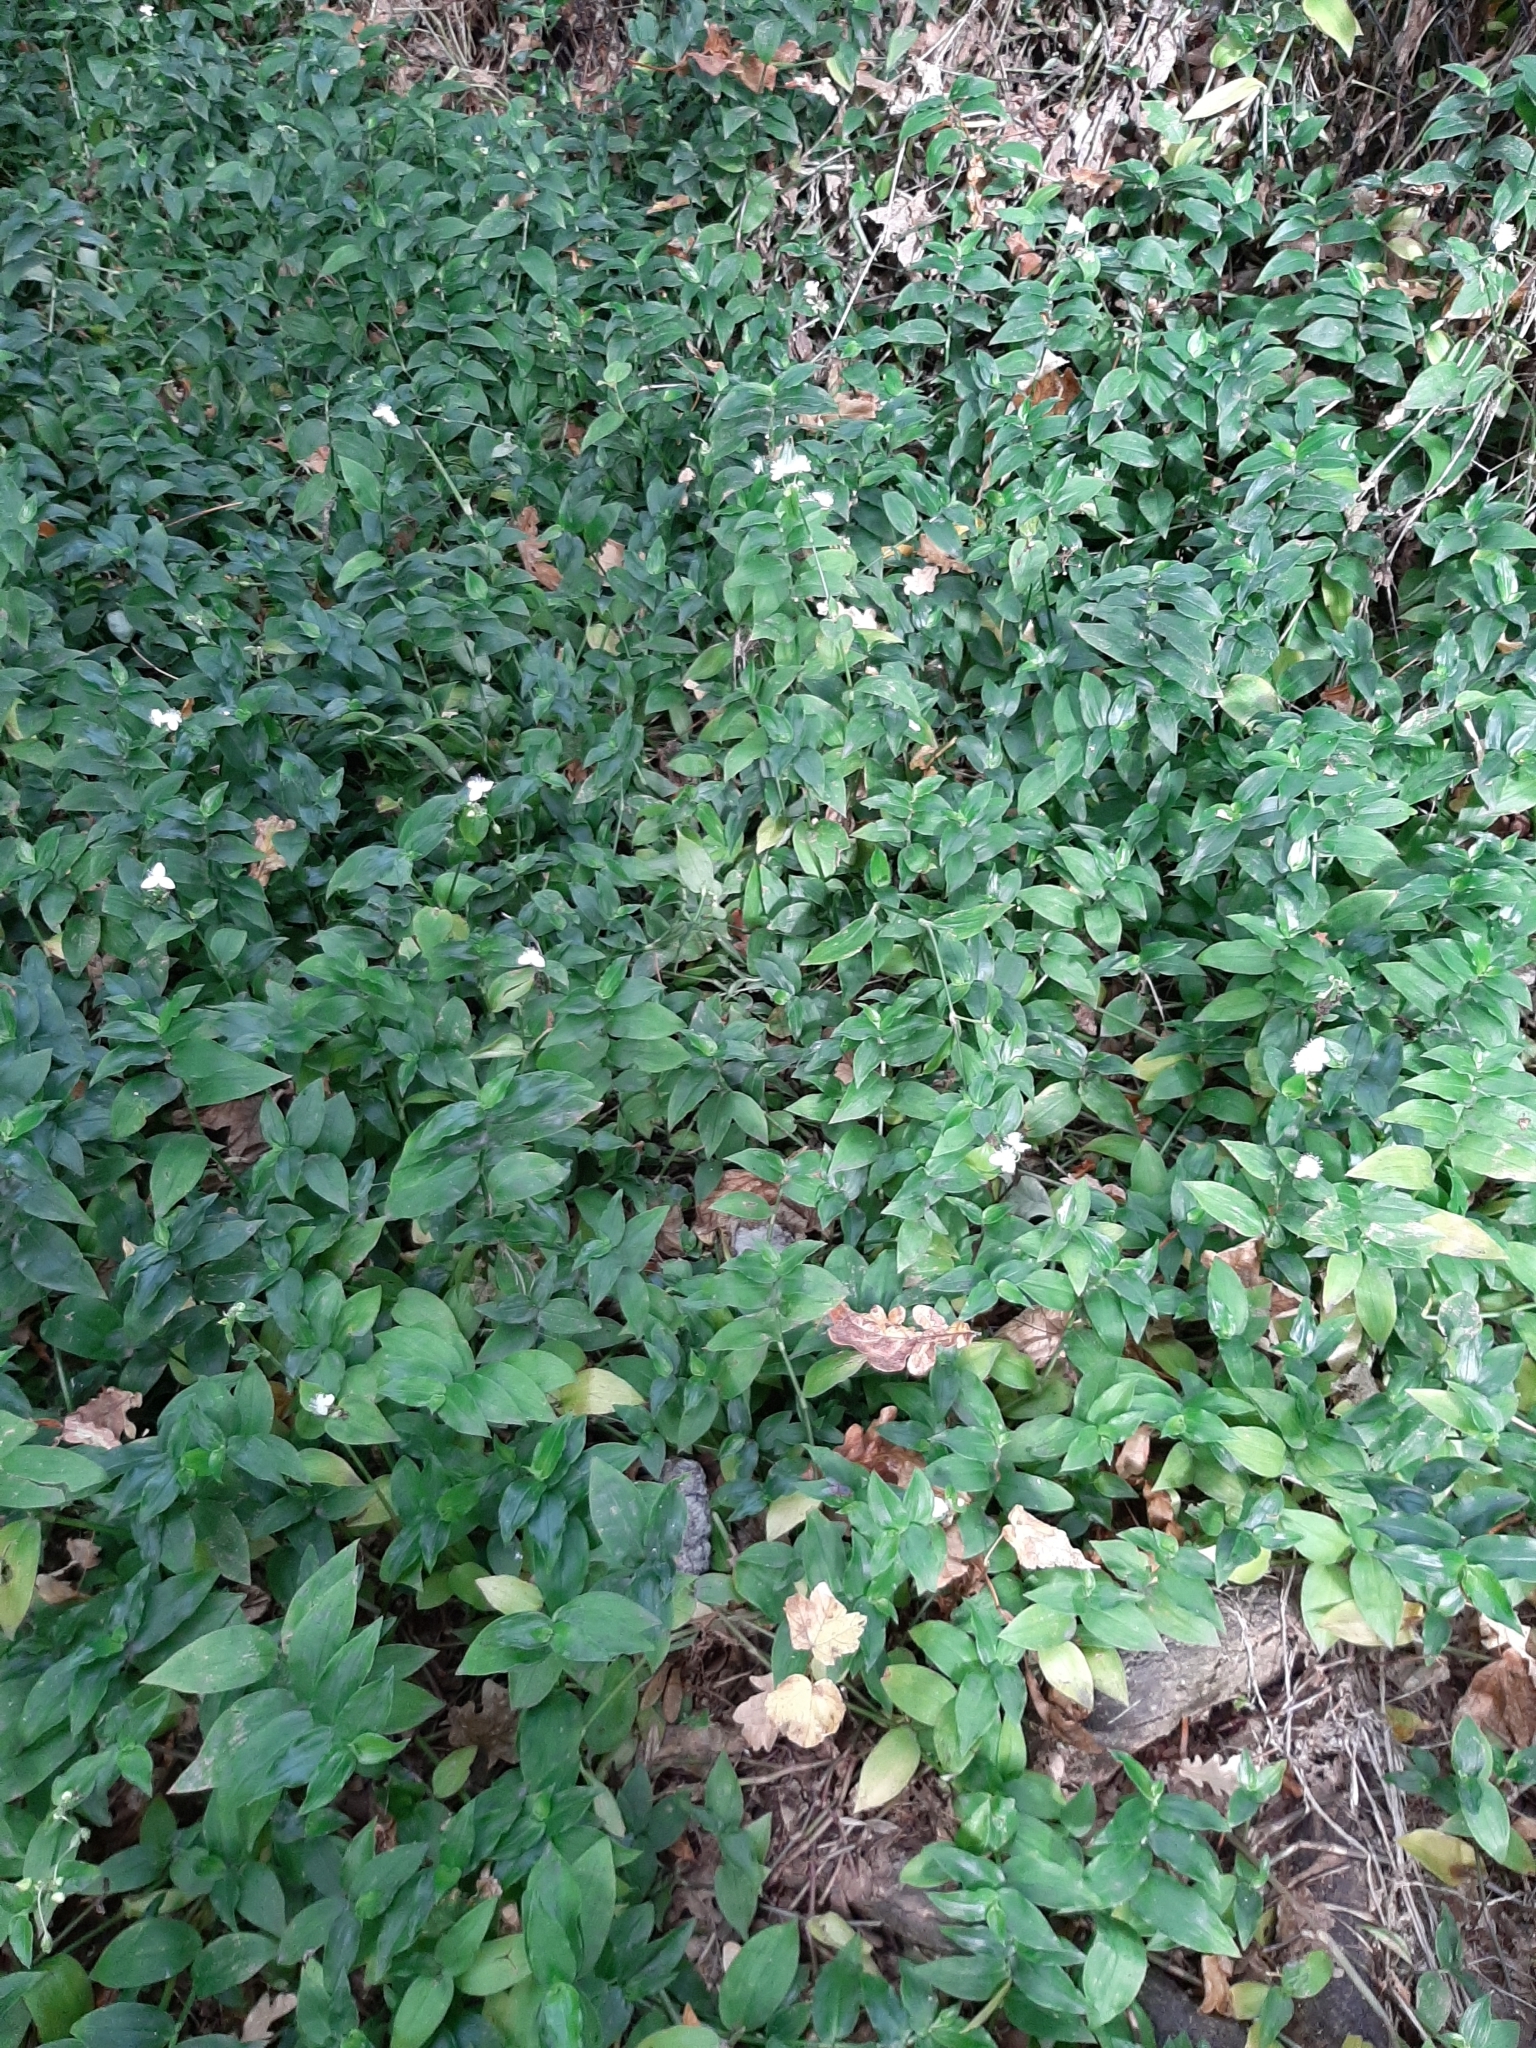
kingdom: Plantae
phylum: Tracheophyta
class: Liliopsida
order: Commelinales
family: Commelinaceae
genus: Tradescantia
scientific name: Tradescantia fluminensis
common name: Wandering-jew
